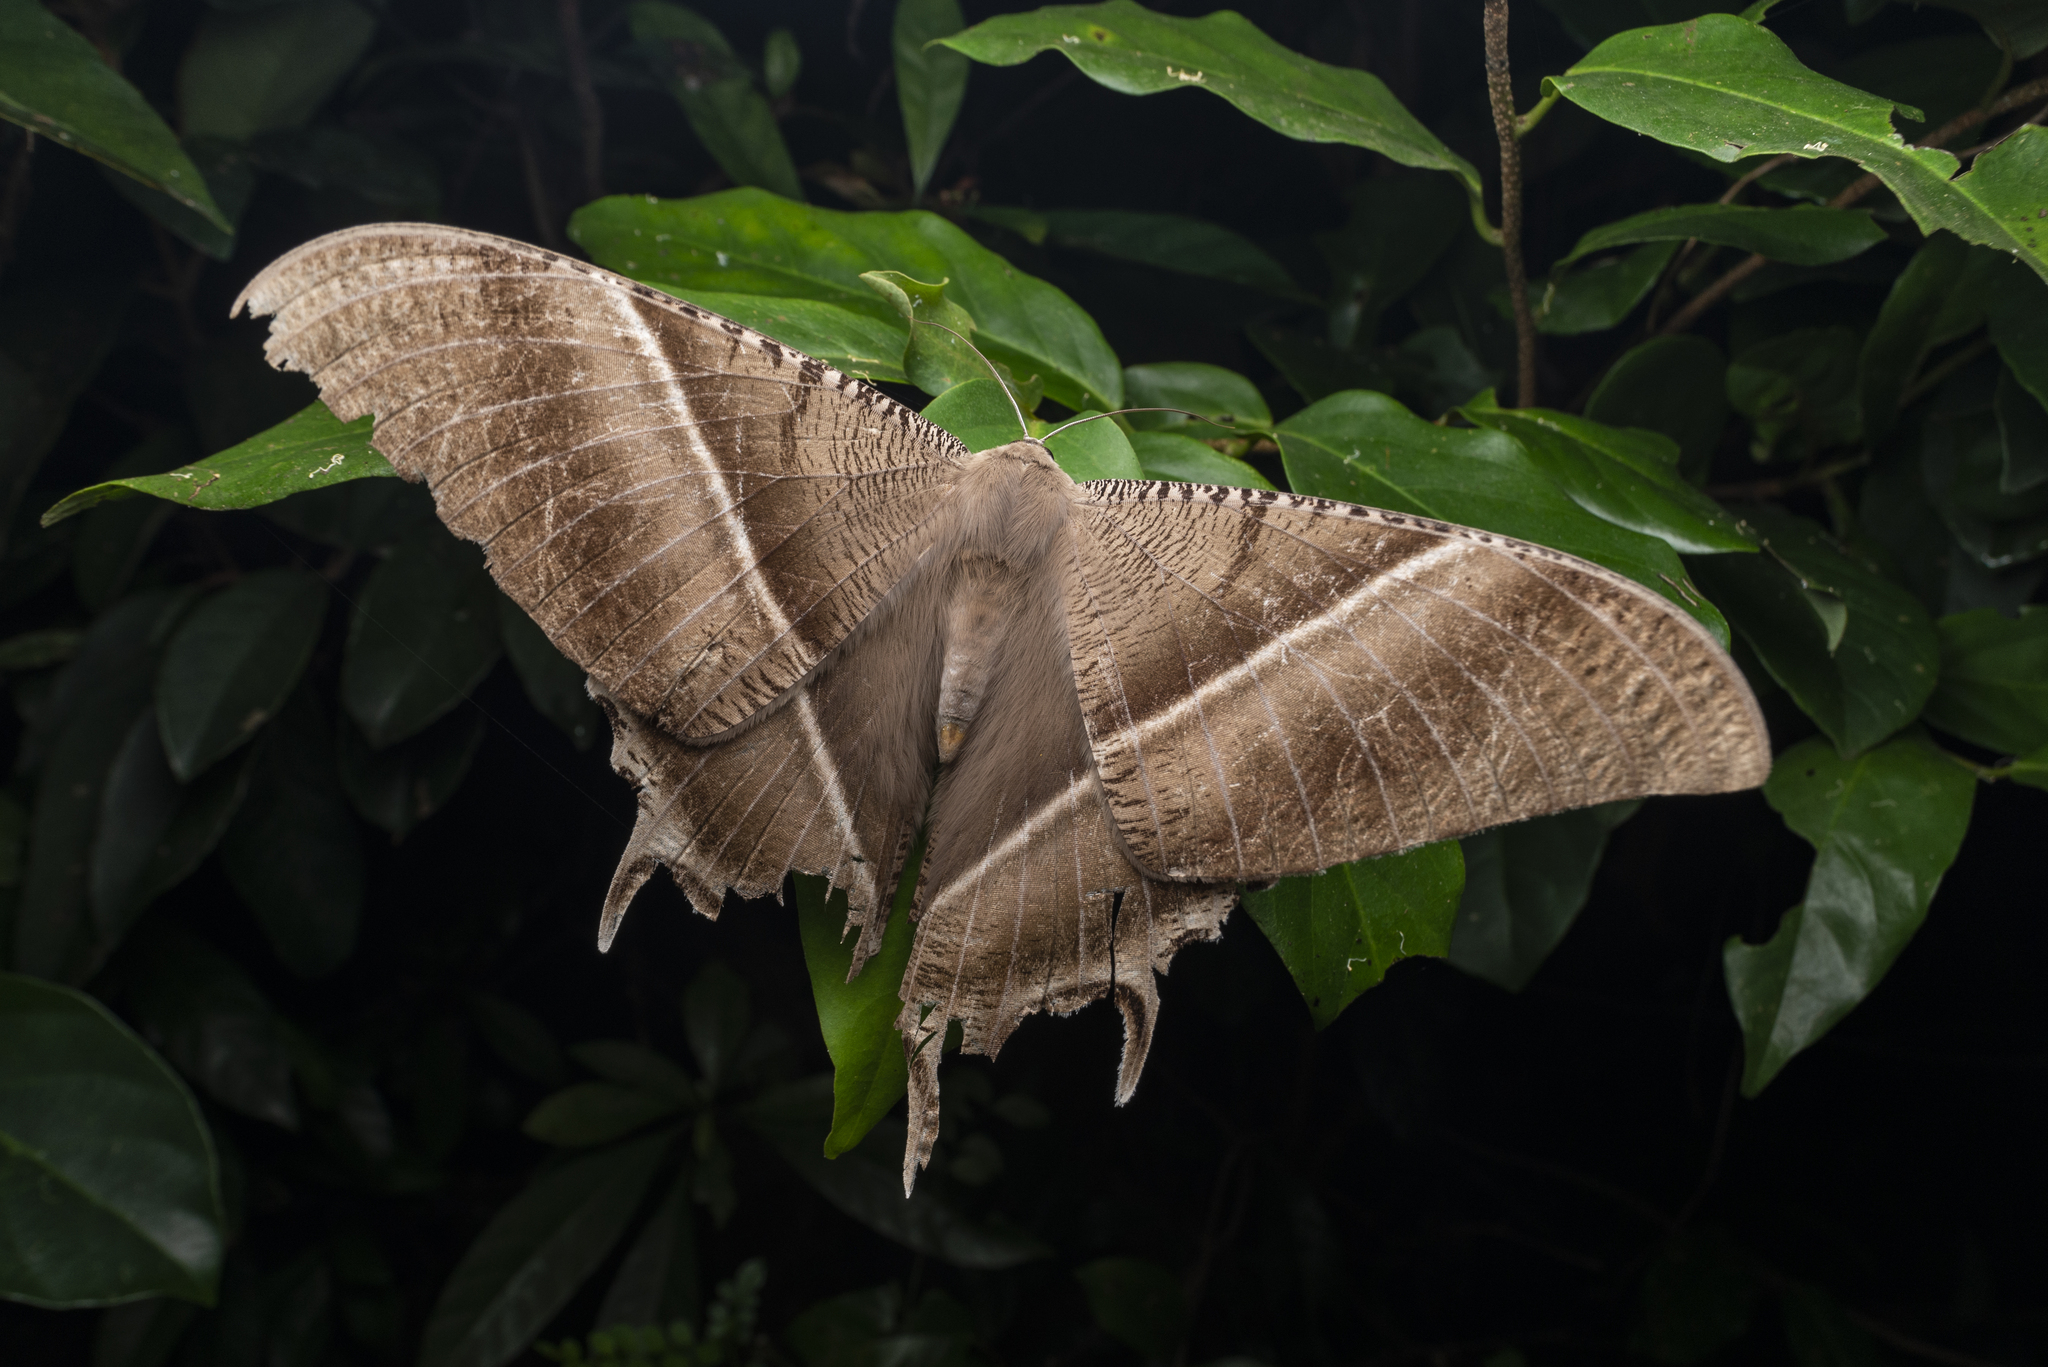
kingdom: Animalia
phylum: Arthropoda
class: Insecta
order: Lepidoptera
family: Uraniidae
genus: Lyssa
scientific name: Lyssa zampa
